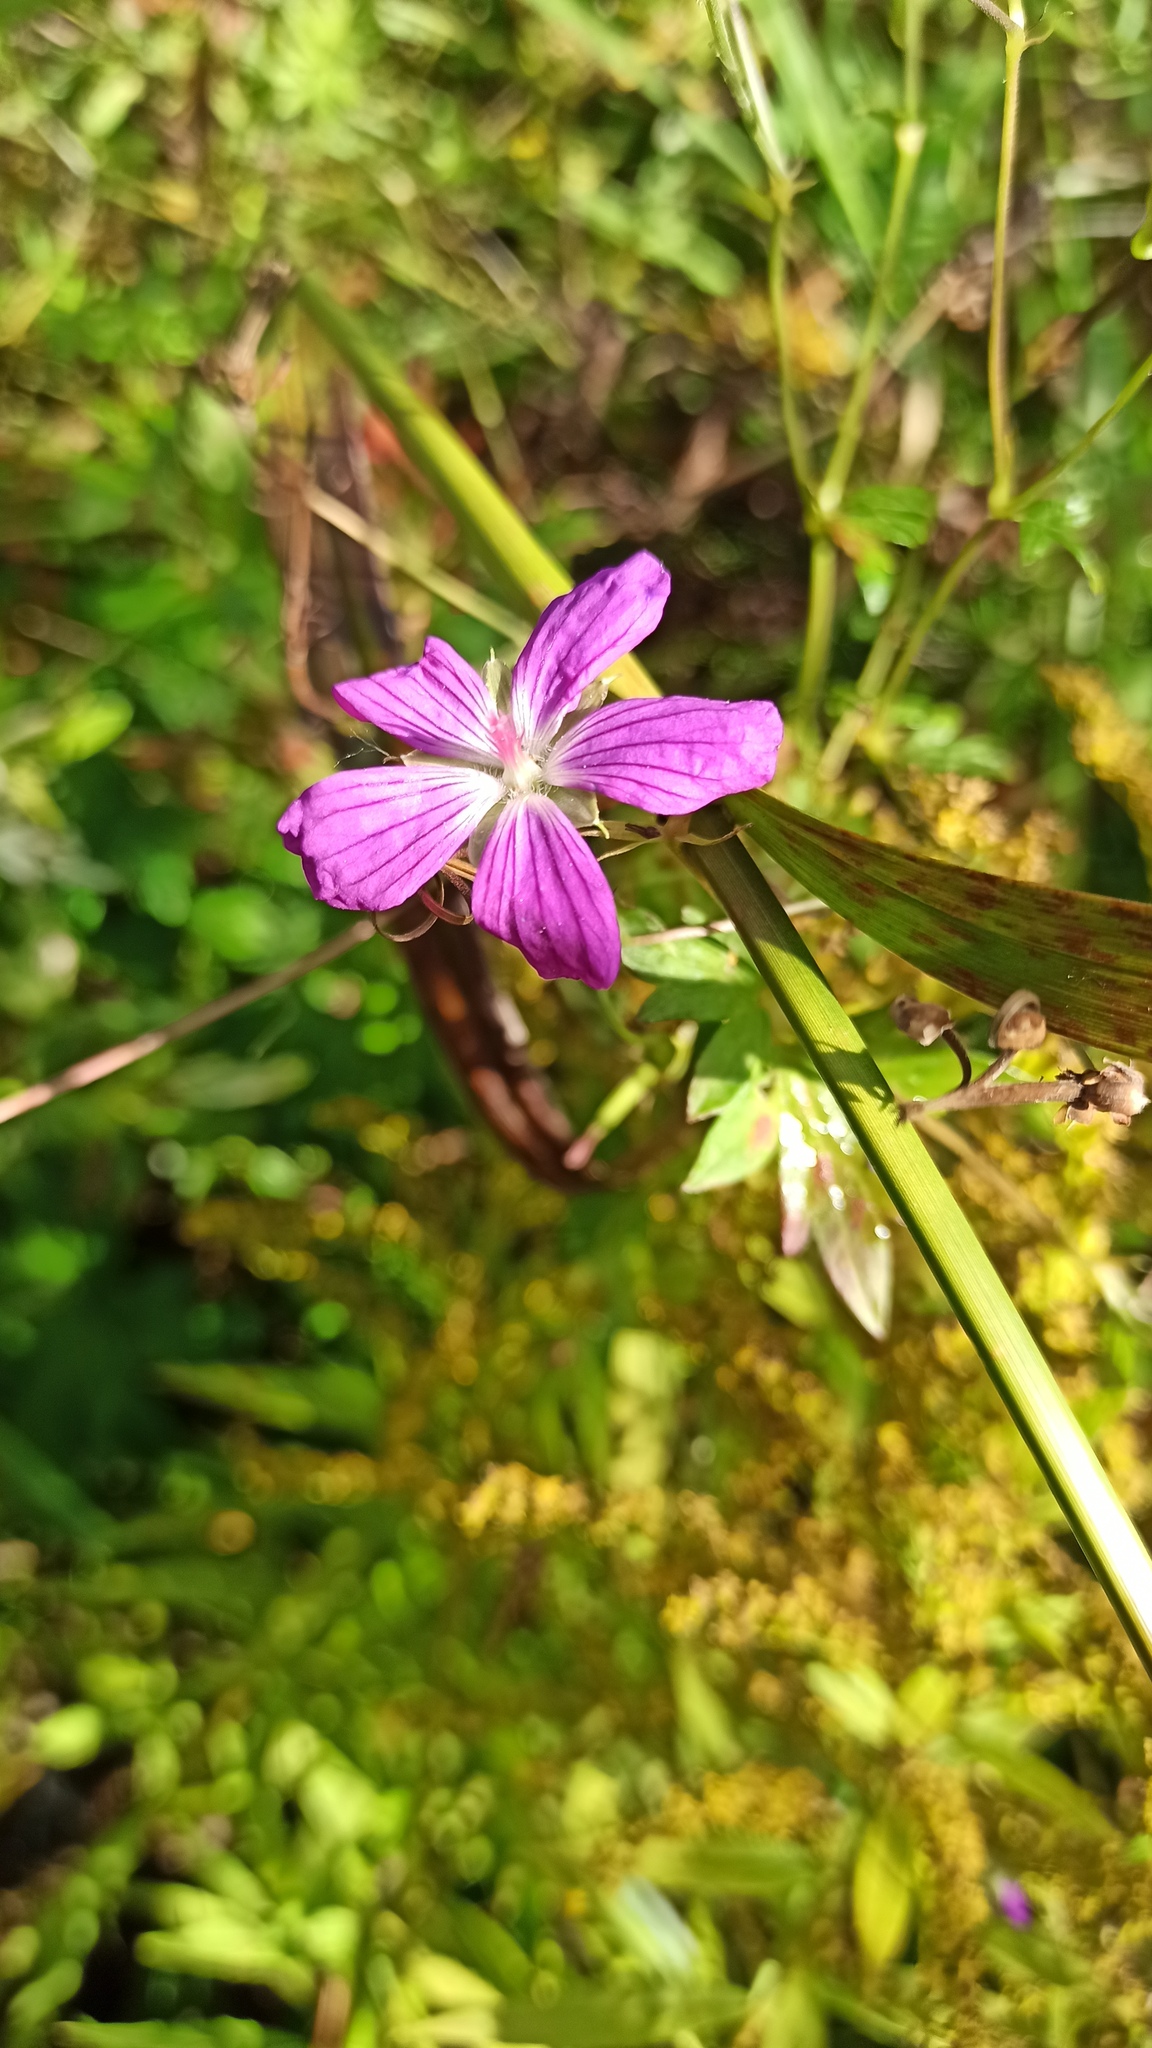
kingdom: Plantae
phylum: Tracheophyta
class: Magnoliopsida
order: Geraniales
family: Geraniaceae
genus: Geranium
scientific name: Geranium palustre
